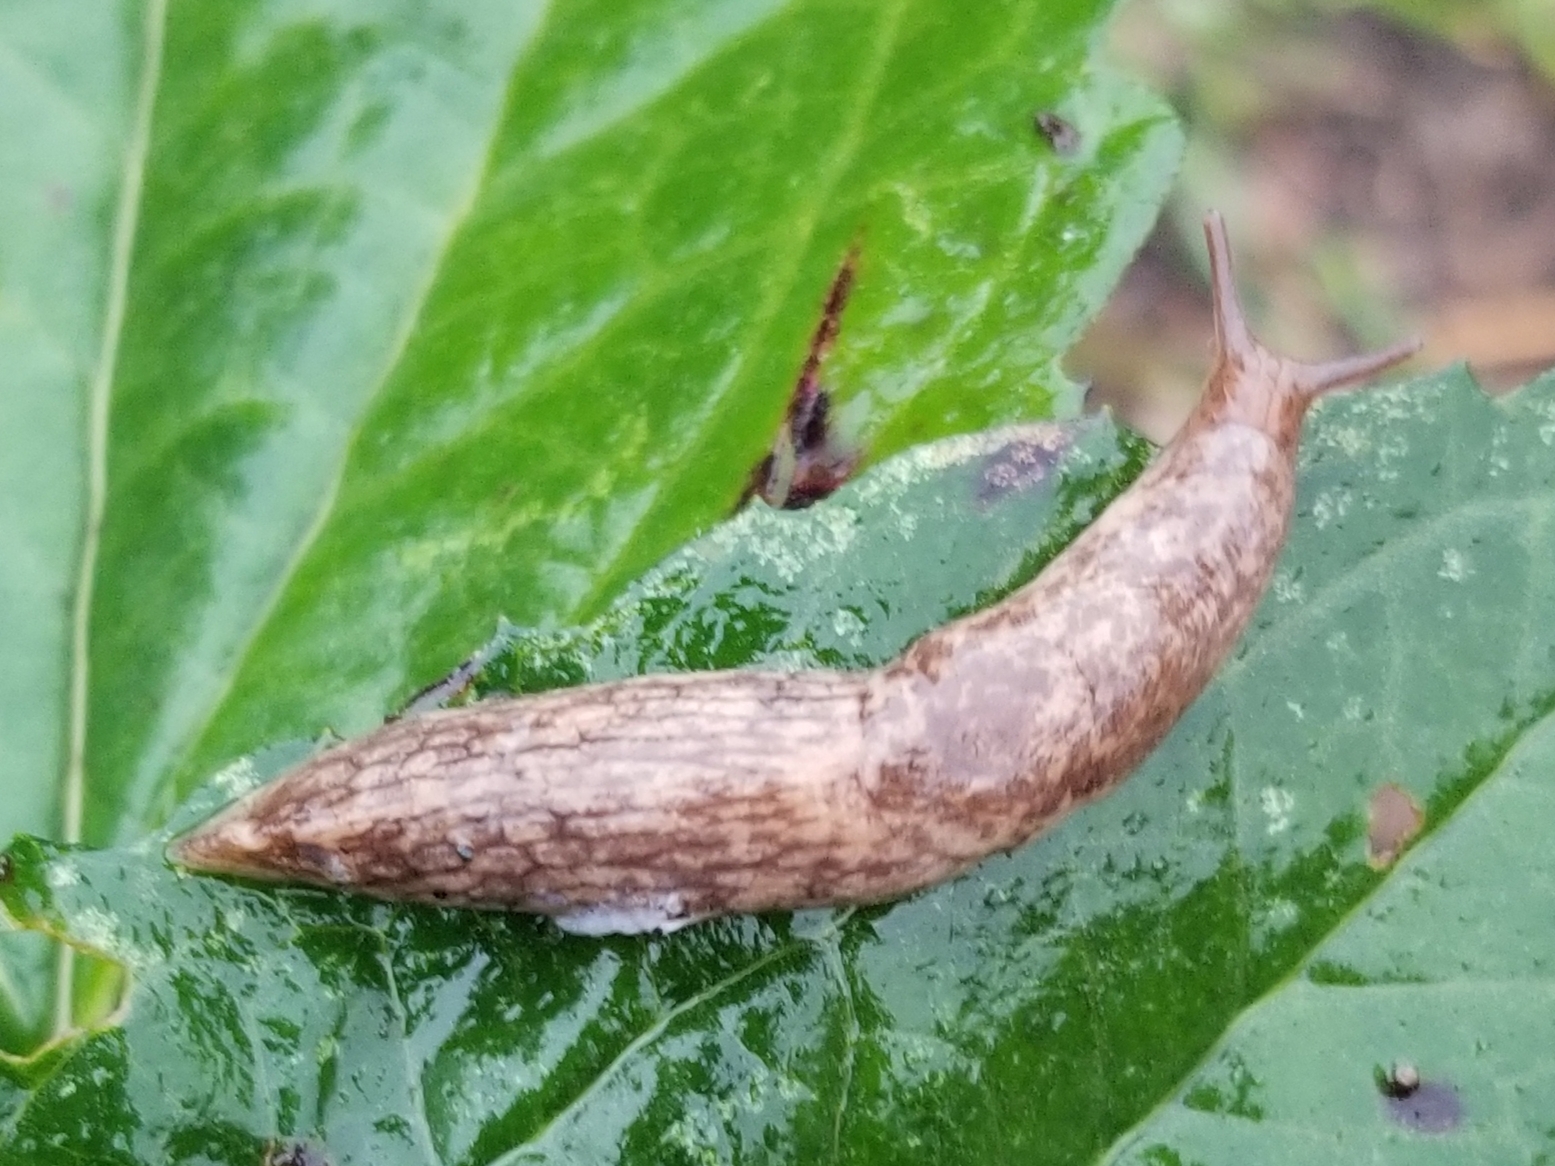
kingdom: Animalia
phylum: Mollusca
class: Gastropoda
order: Stylommatophora
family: Agriolimacidae
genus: Deroceras
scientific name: Deroceras reticulatum
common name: Gray field slug
